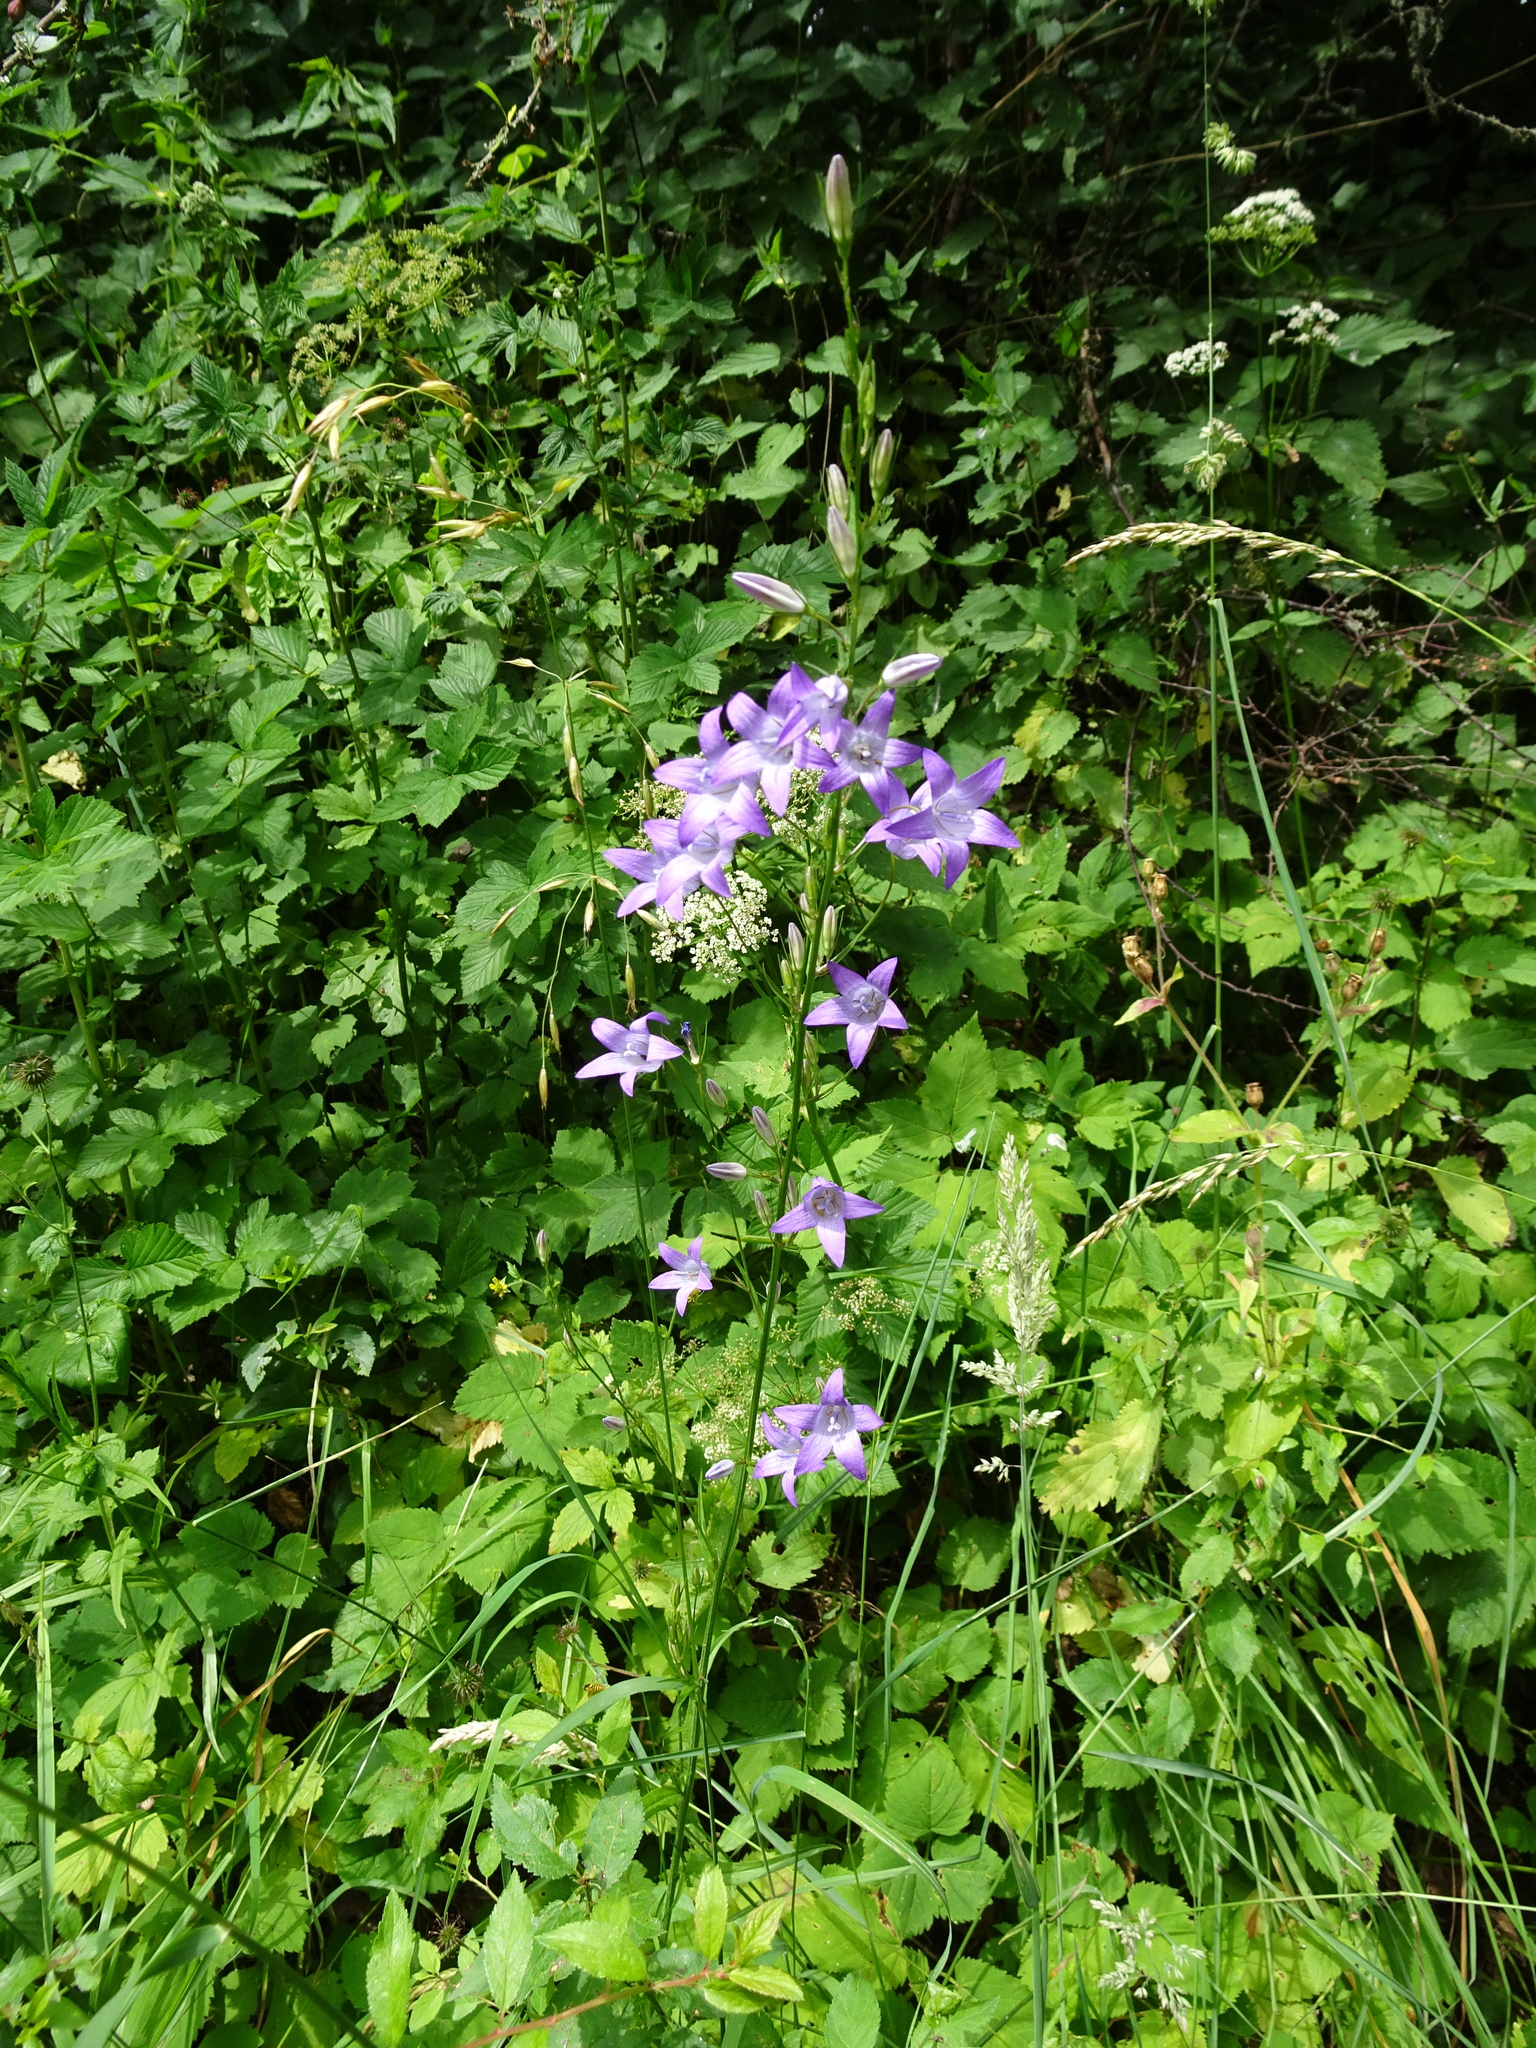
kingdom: Plantae
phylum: Tracheophyta
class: Magnoliopsida
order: Asterales
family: Campanulaceae
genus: Campanula
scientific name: Campanula rapunculus
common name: Rampion bellflower
